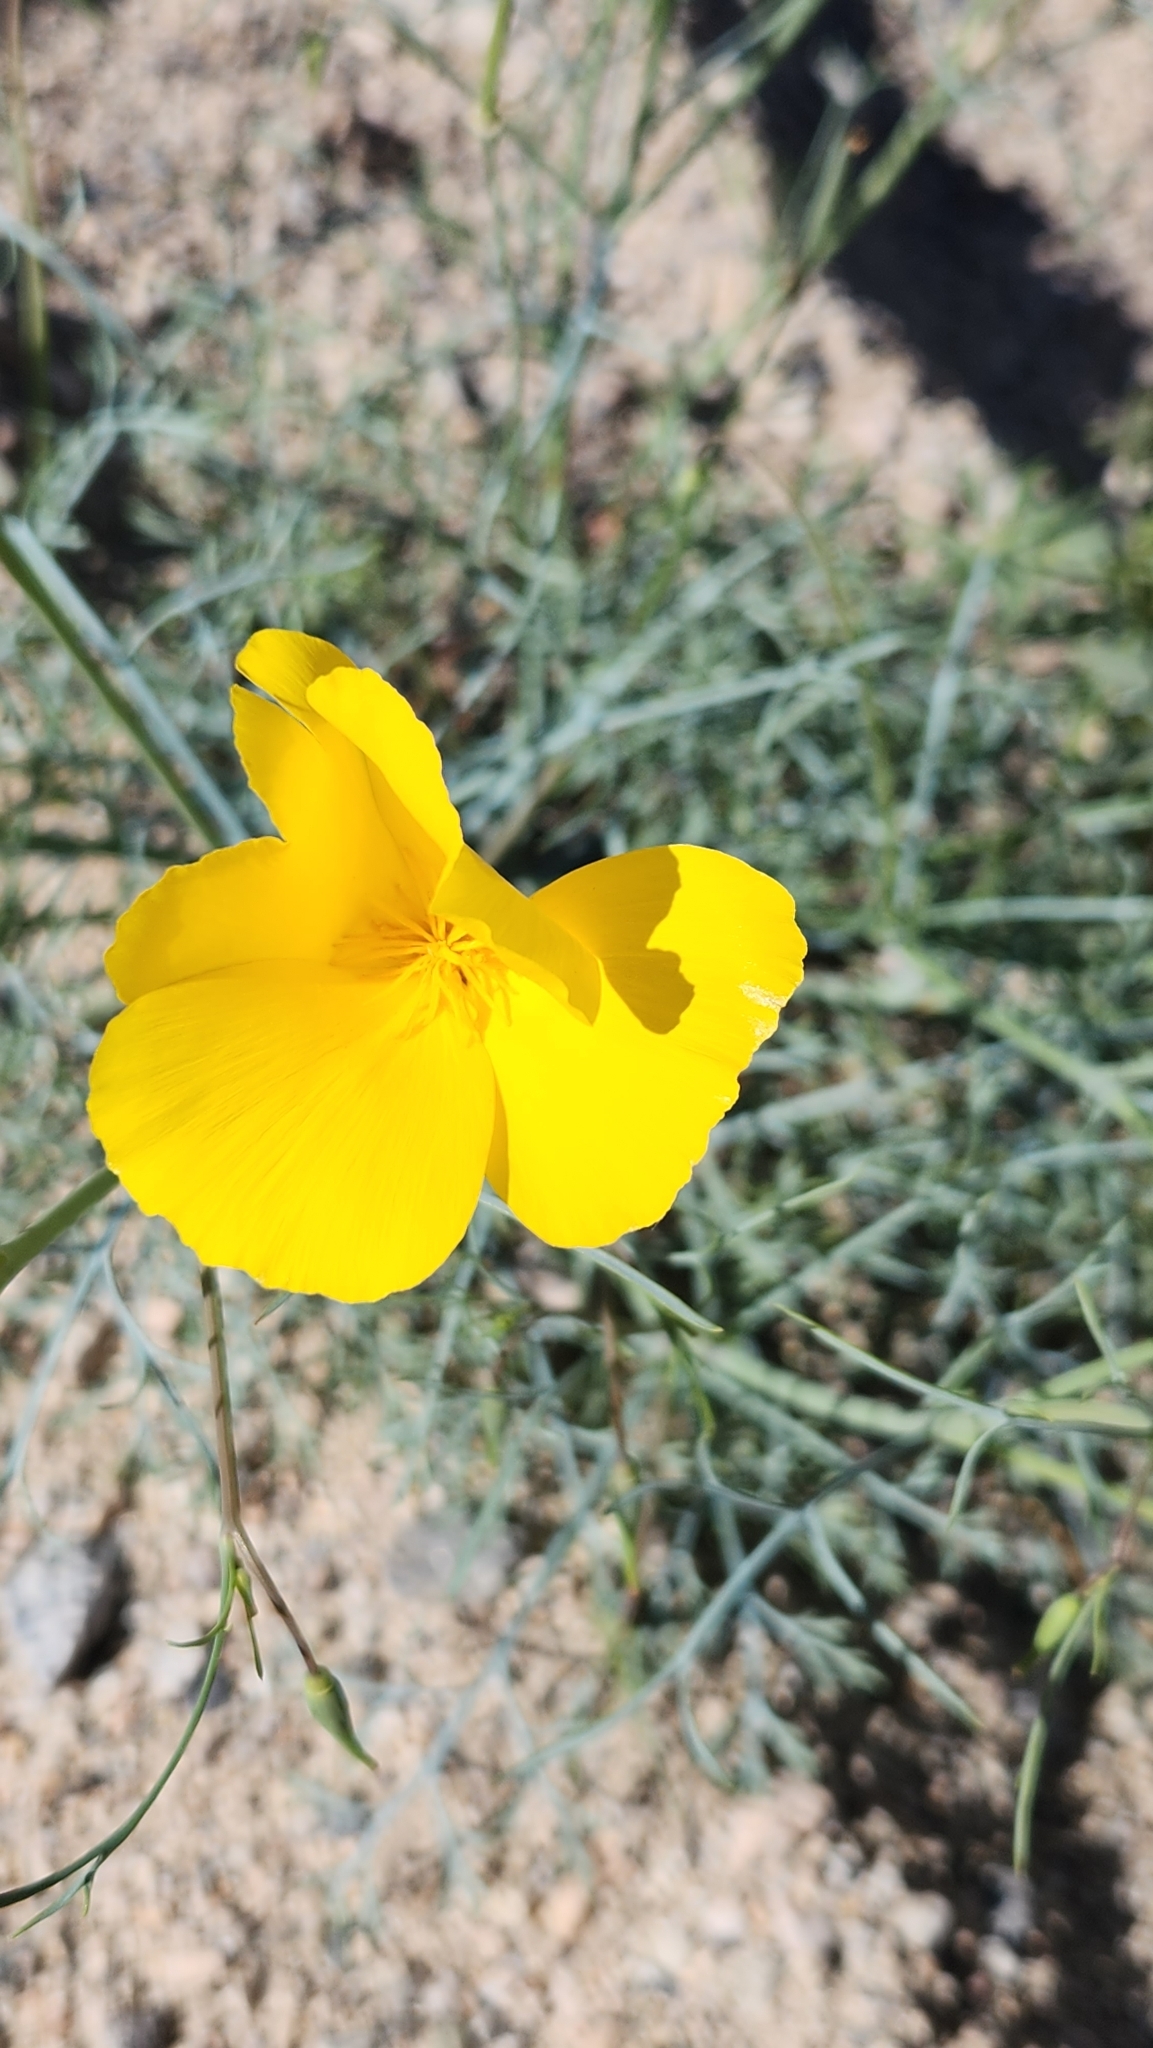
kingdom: Plantae
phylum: Tracheophyta
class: Magnoliopsida
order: Ranunculales
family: Papaveraceae
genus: Eschscholzia
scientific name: Eschscholzia papastillii
